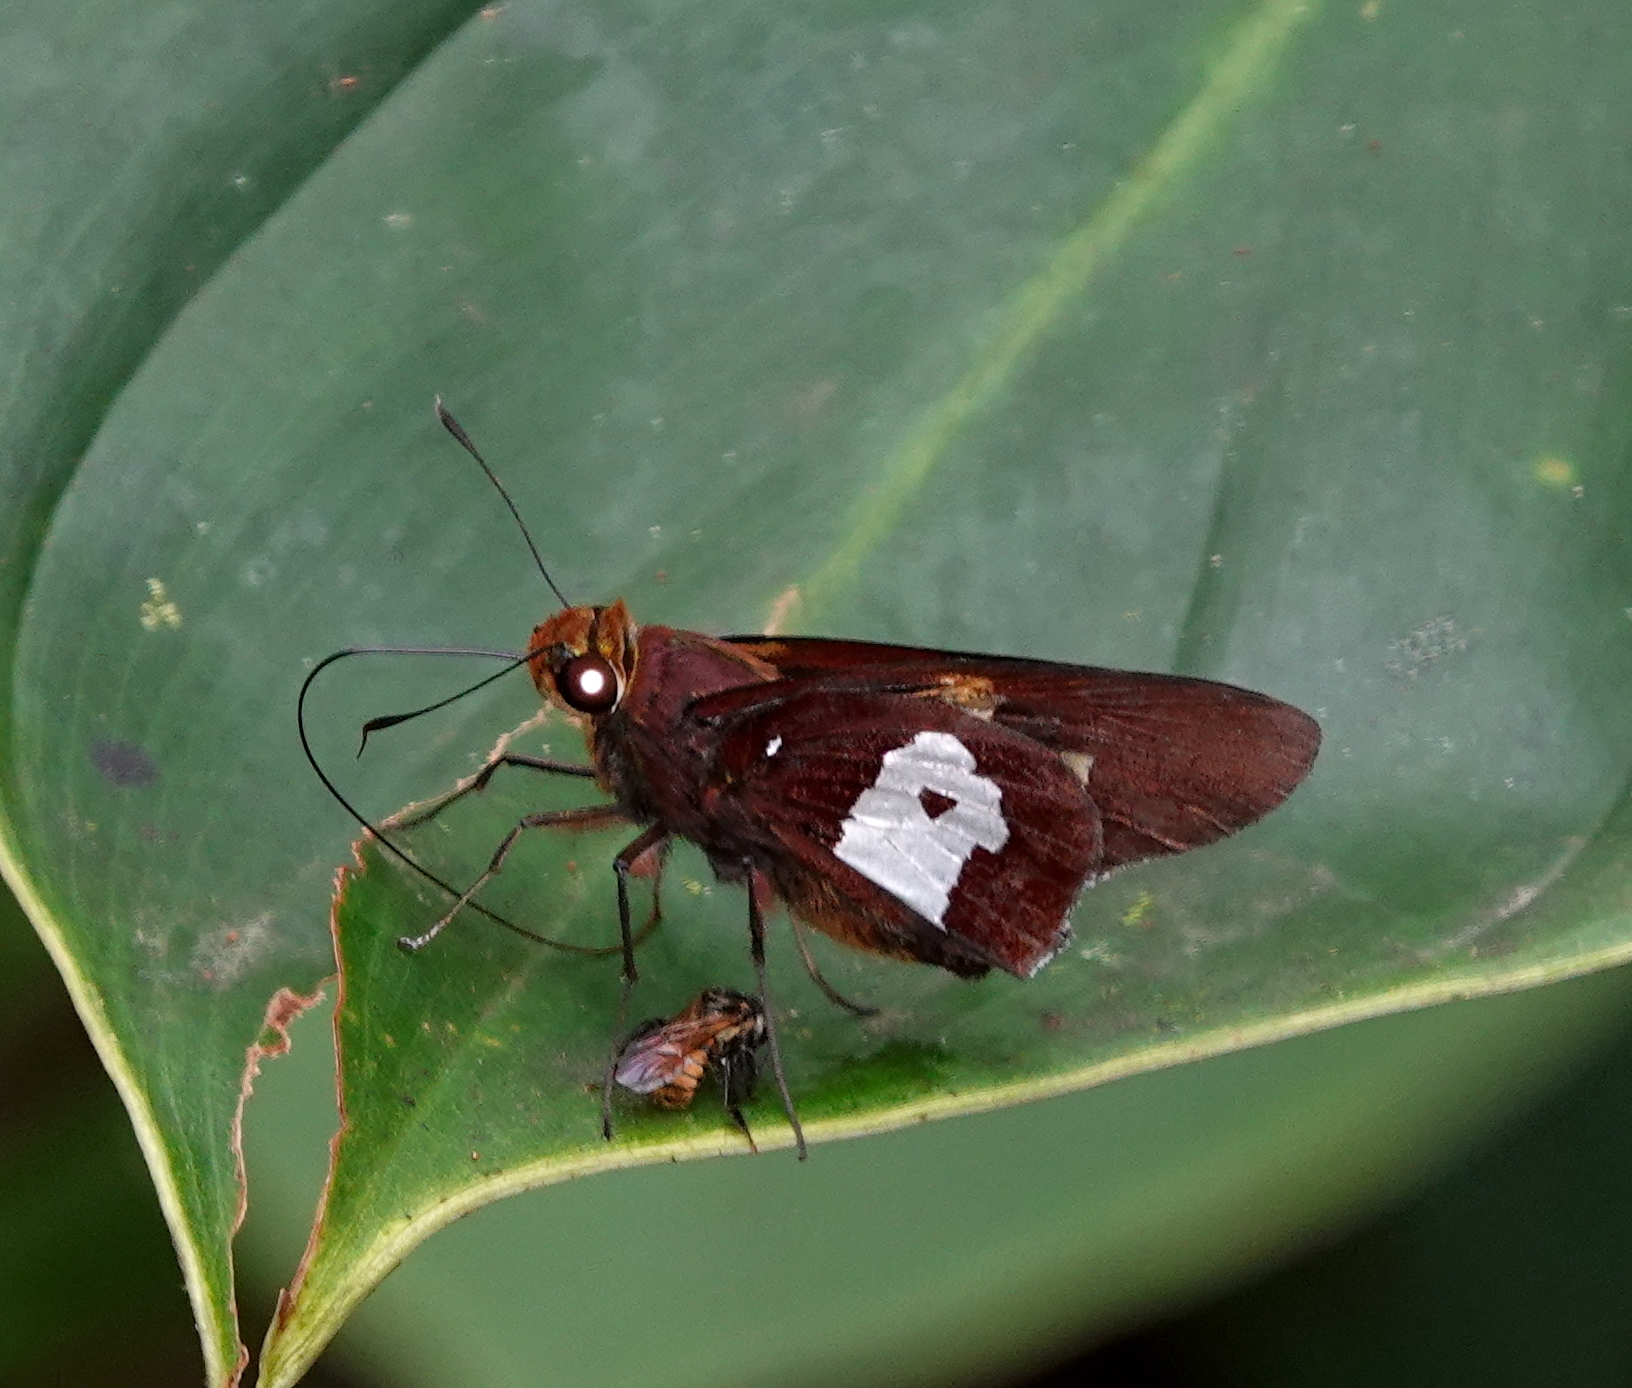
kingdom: Animalia
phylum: Arthropoda
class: Insecta
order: Lepidoptera
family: Hesperiidae
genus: Aides
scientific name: Aides dysoni
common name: Dyson's silverpatch
